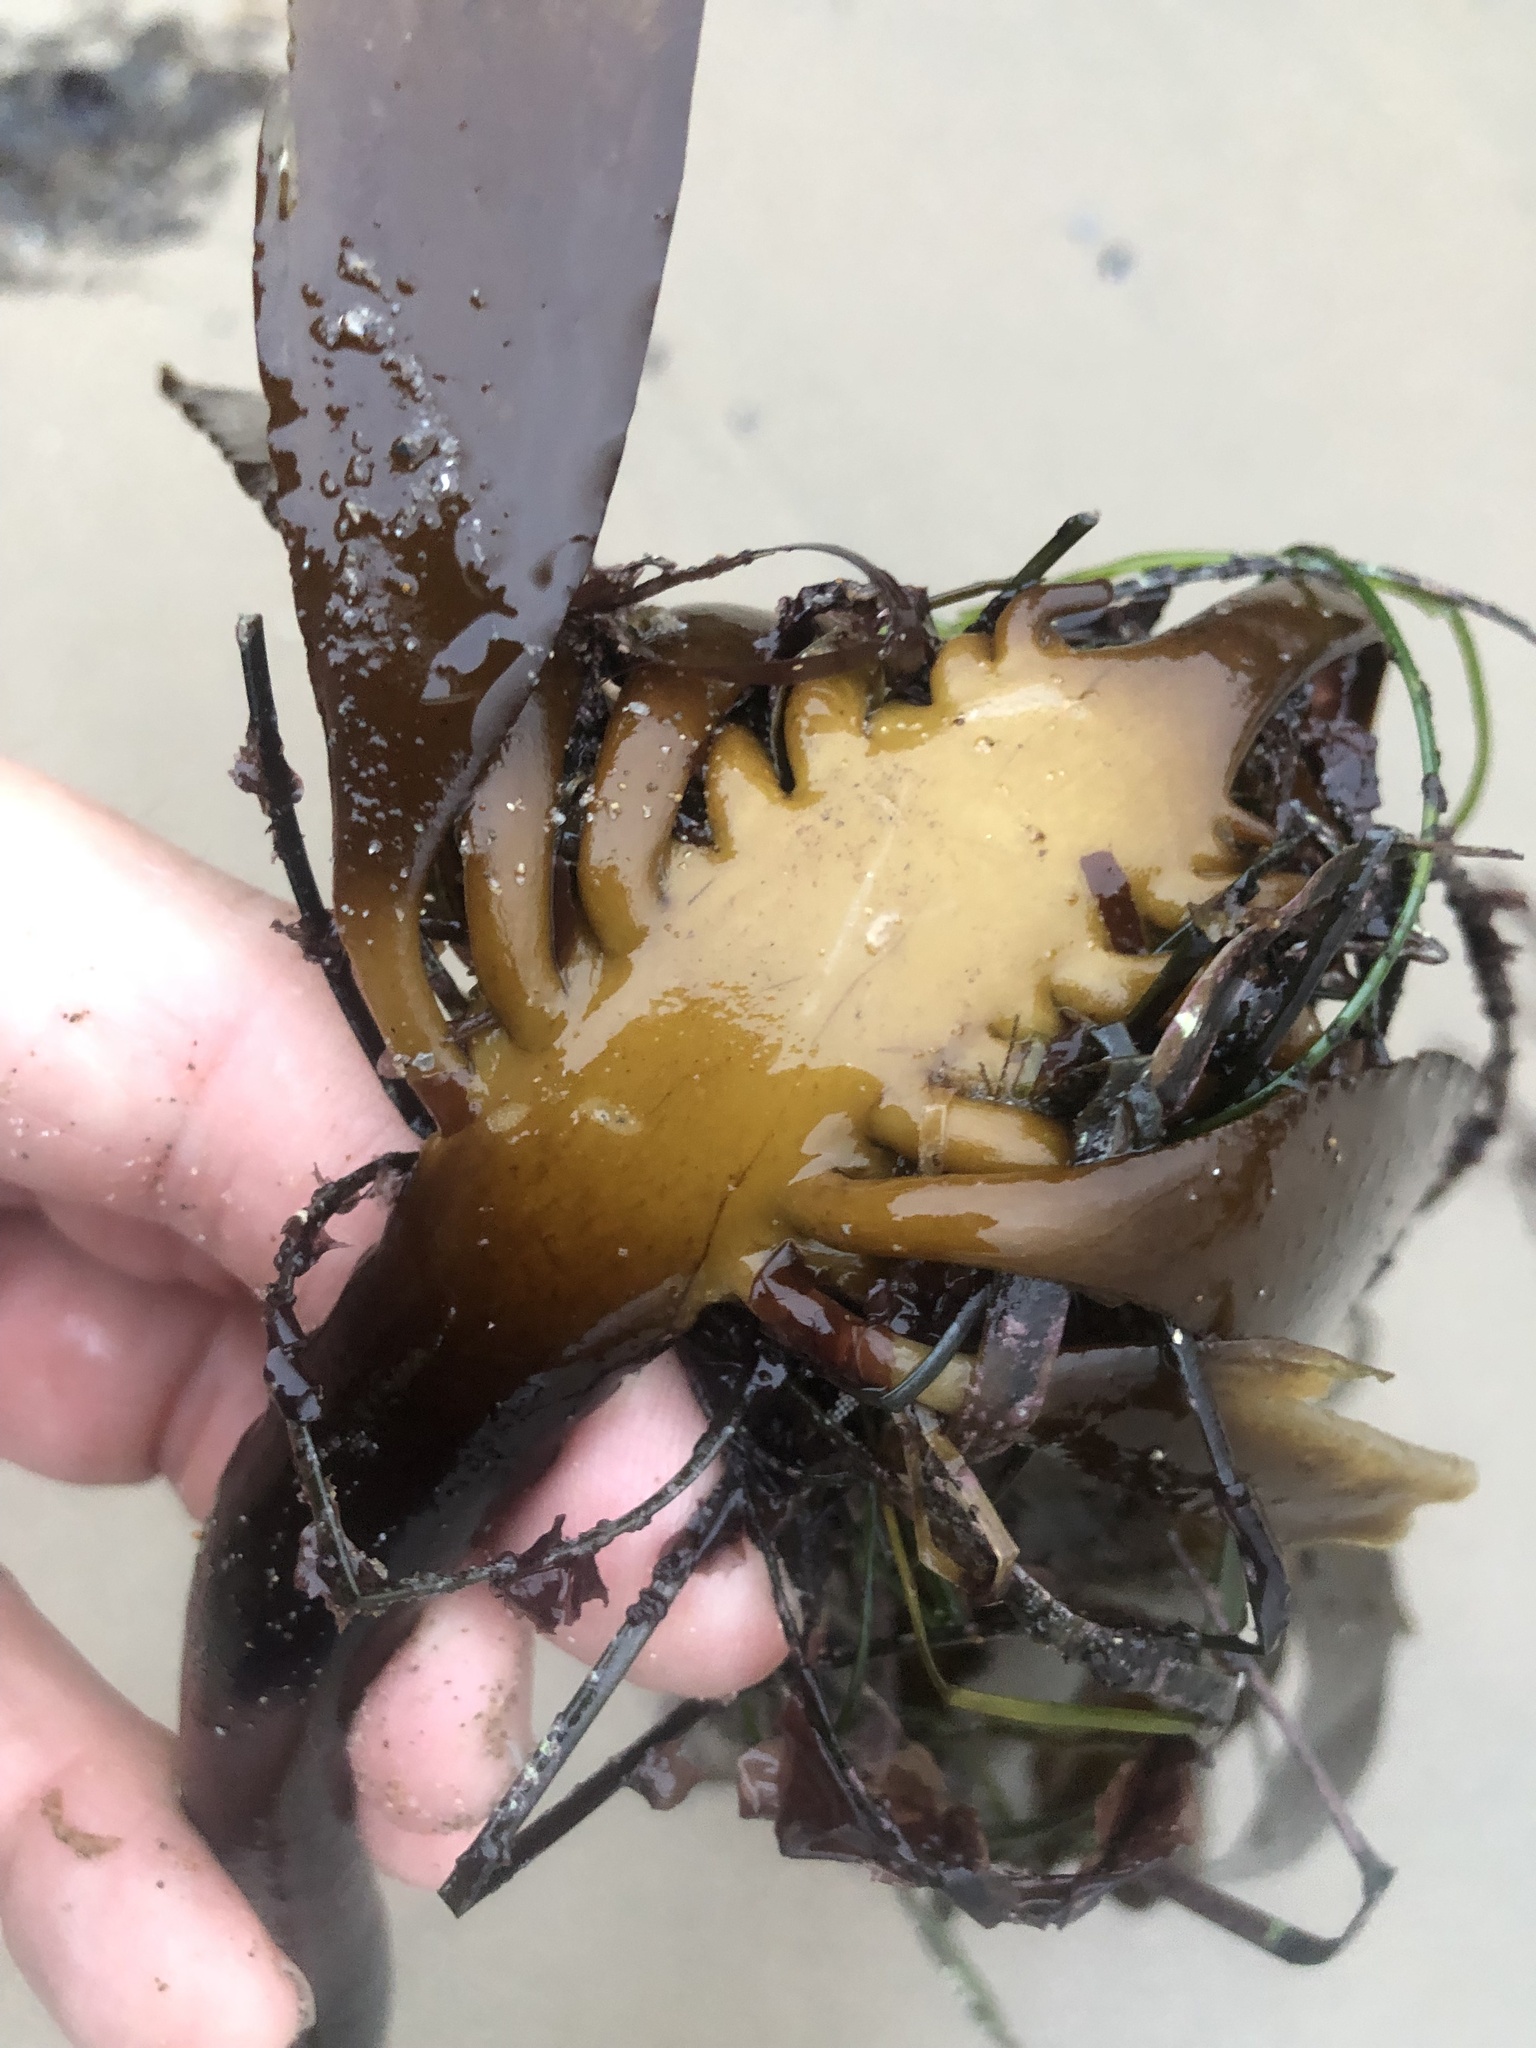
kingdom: Chromista
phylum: Ochrophyta
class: Phaeophyceae
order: Laminariales
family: Alariaceae
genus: Pterygophora
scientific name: Pterygophora californica
